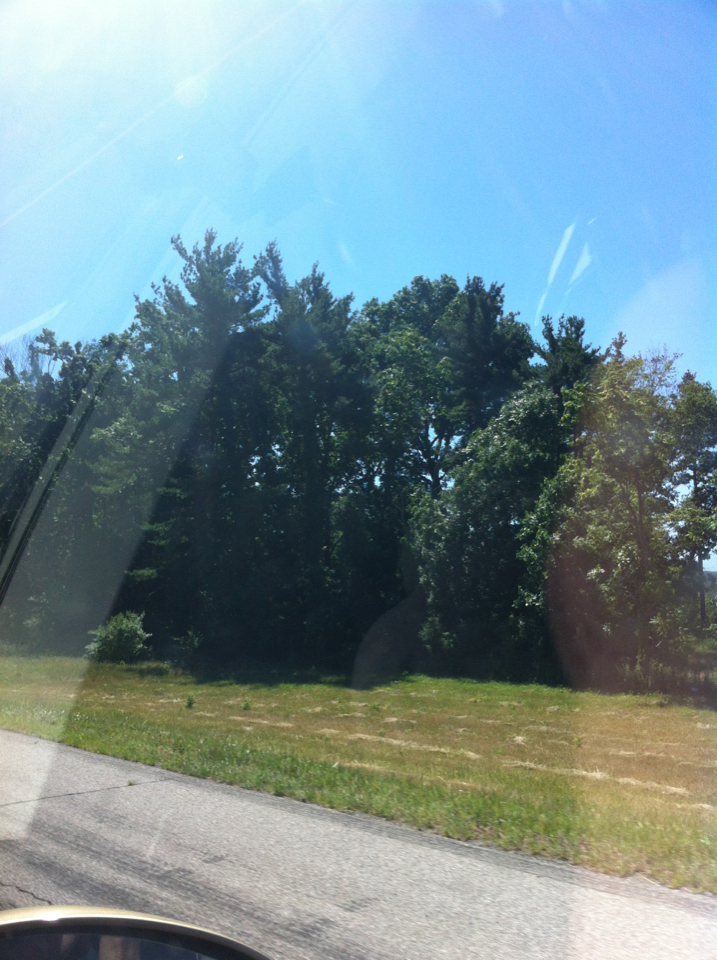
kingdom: Plantae
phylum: Tracheophyta
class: Pinopsida
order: Pinales
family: Pinaceae
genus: Pinus
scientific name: Pinus strobus
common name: Weymouth pine
